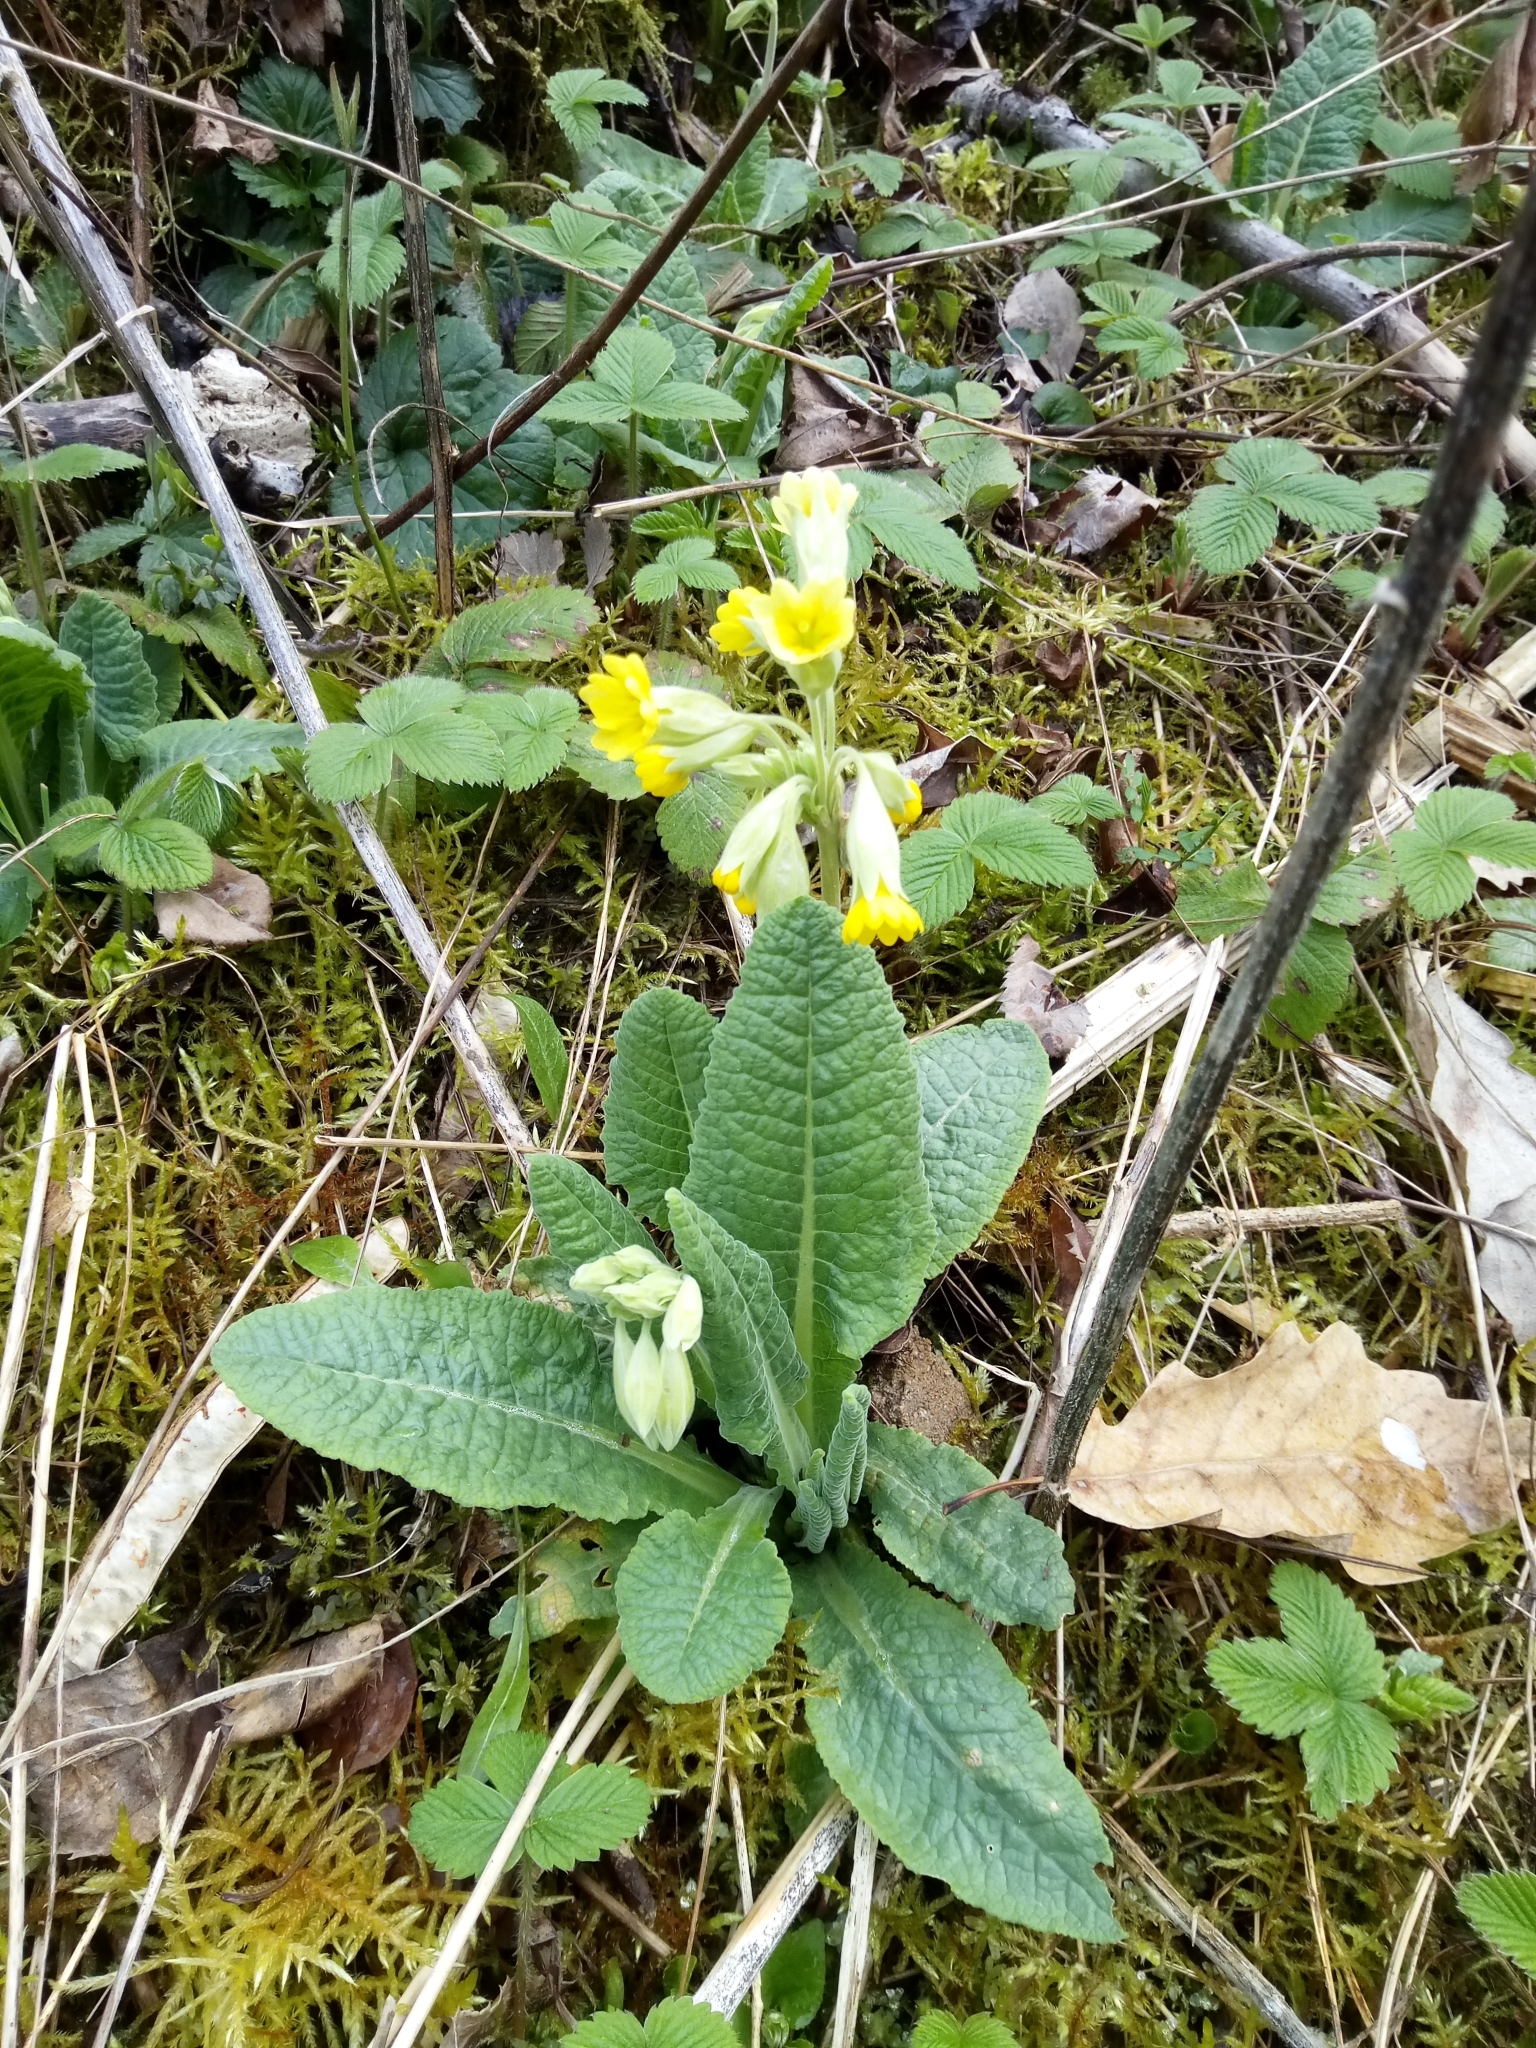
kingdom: Plantae
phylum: Tracheophyta
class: Magnoliopsida
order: Ericales
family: Primulaceae
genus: Primula
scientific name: Primula veris
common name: Cowslip
